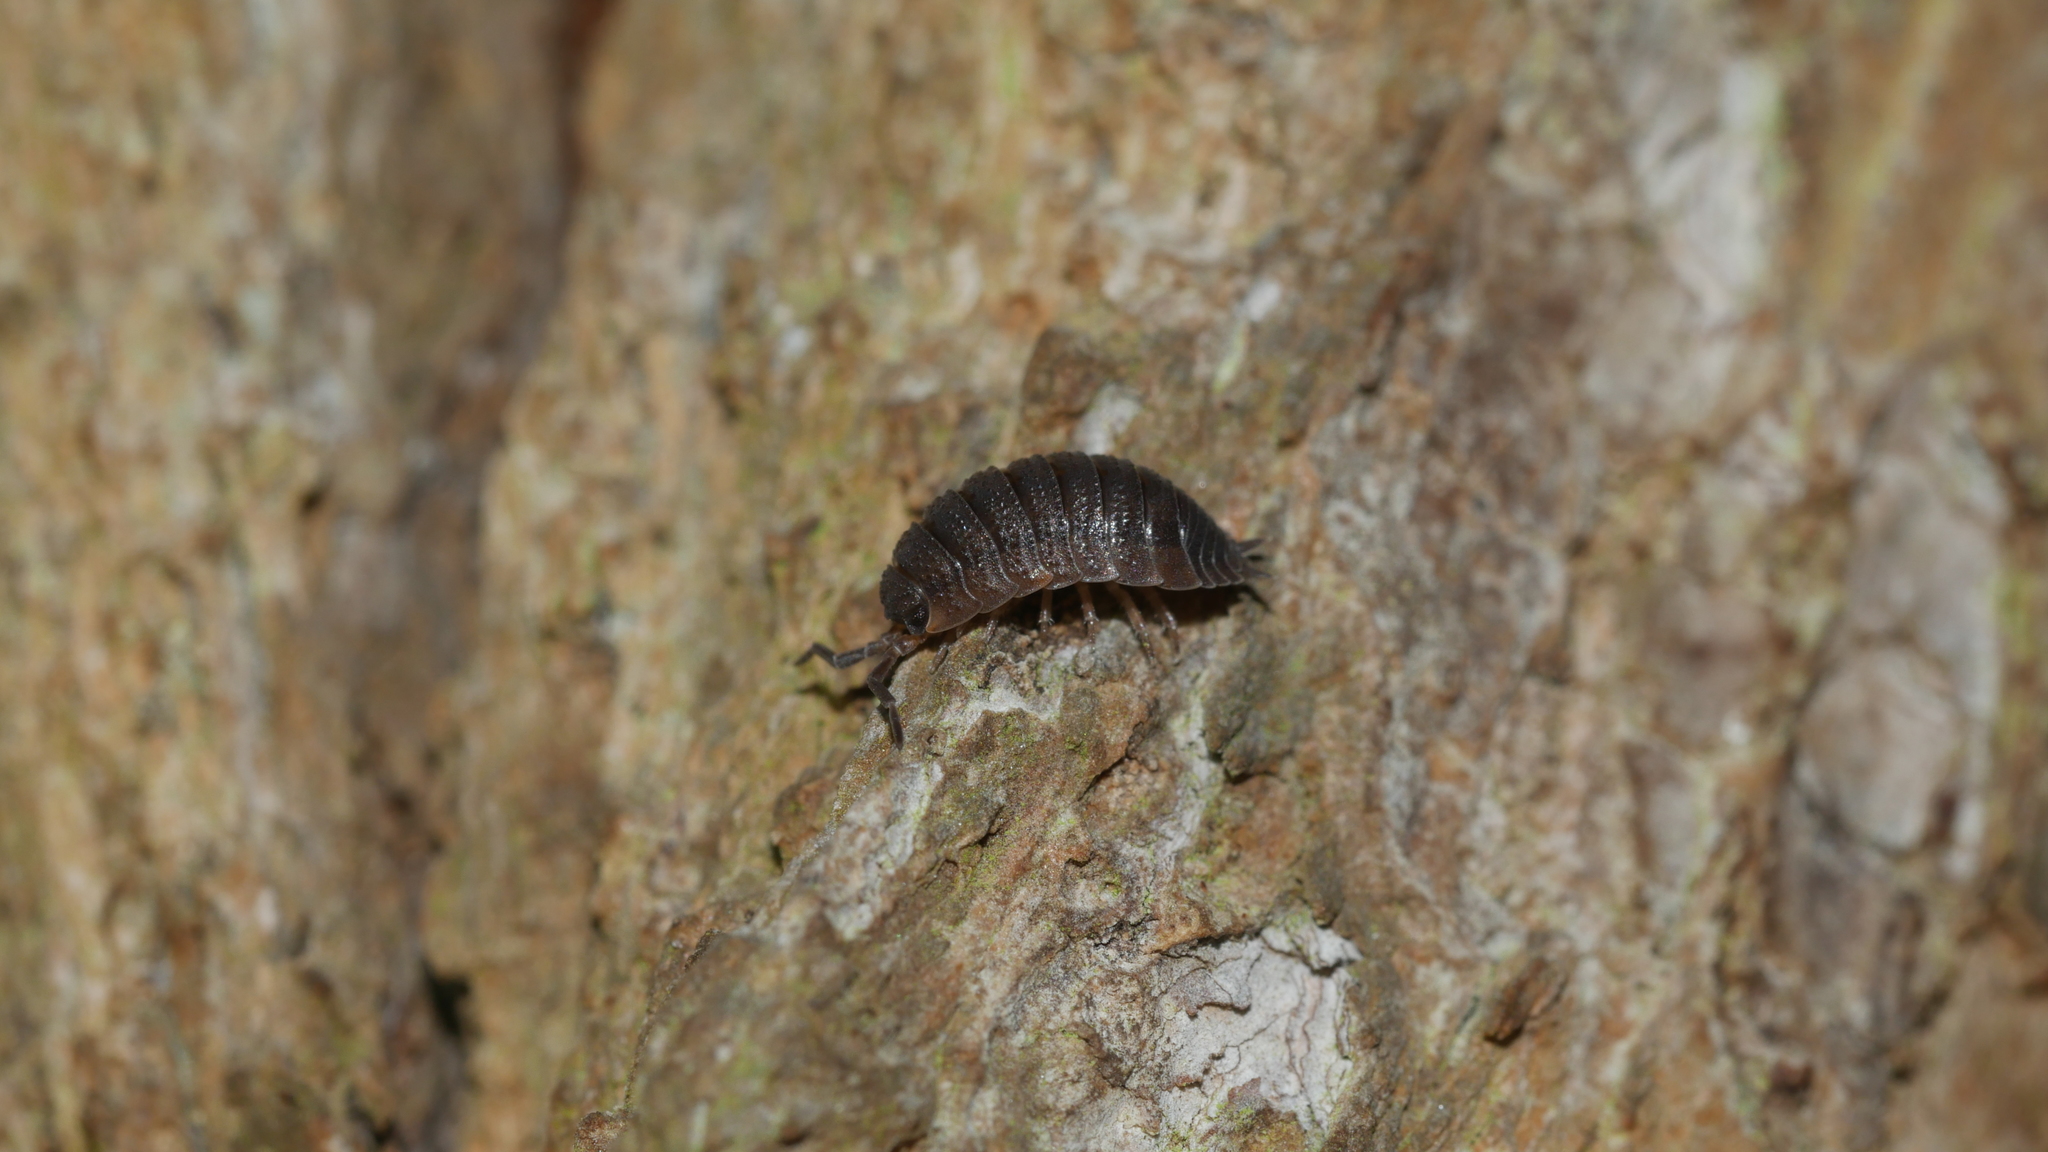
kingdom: Animalia
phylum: Arthropoda
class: Malacostraca
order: Isopoda
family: Porcellionidae
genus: Porcellio
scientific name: Porcellio scaber
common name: Common rough woodlouse
